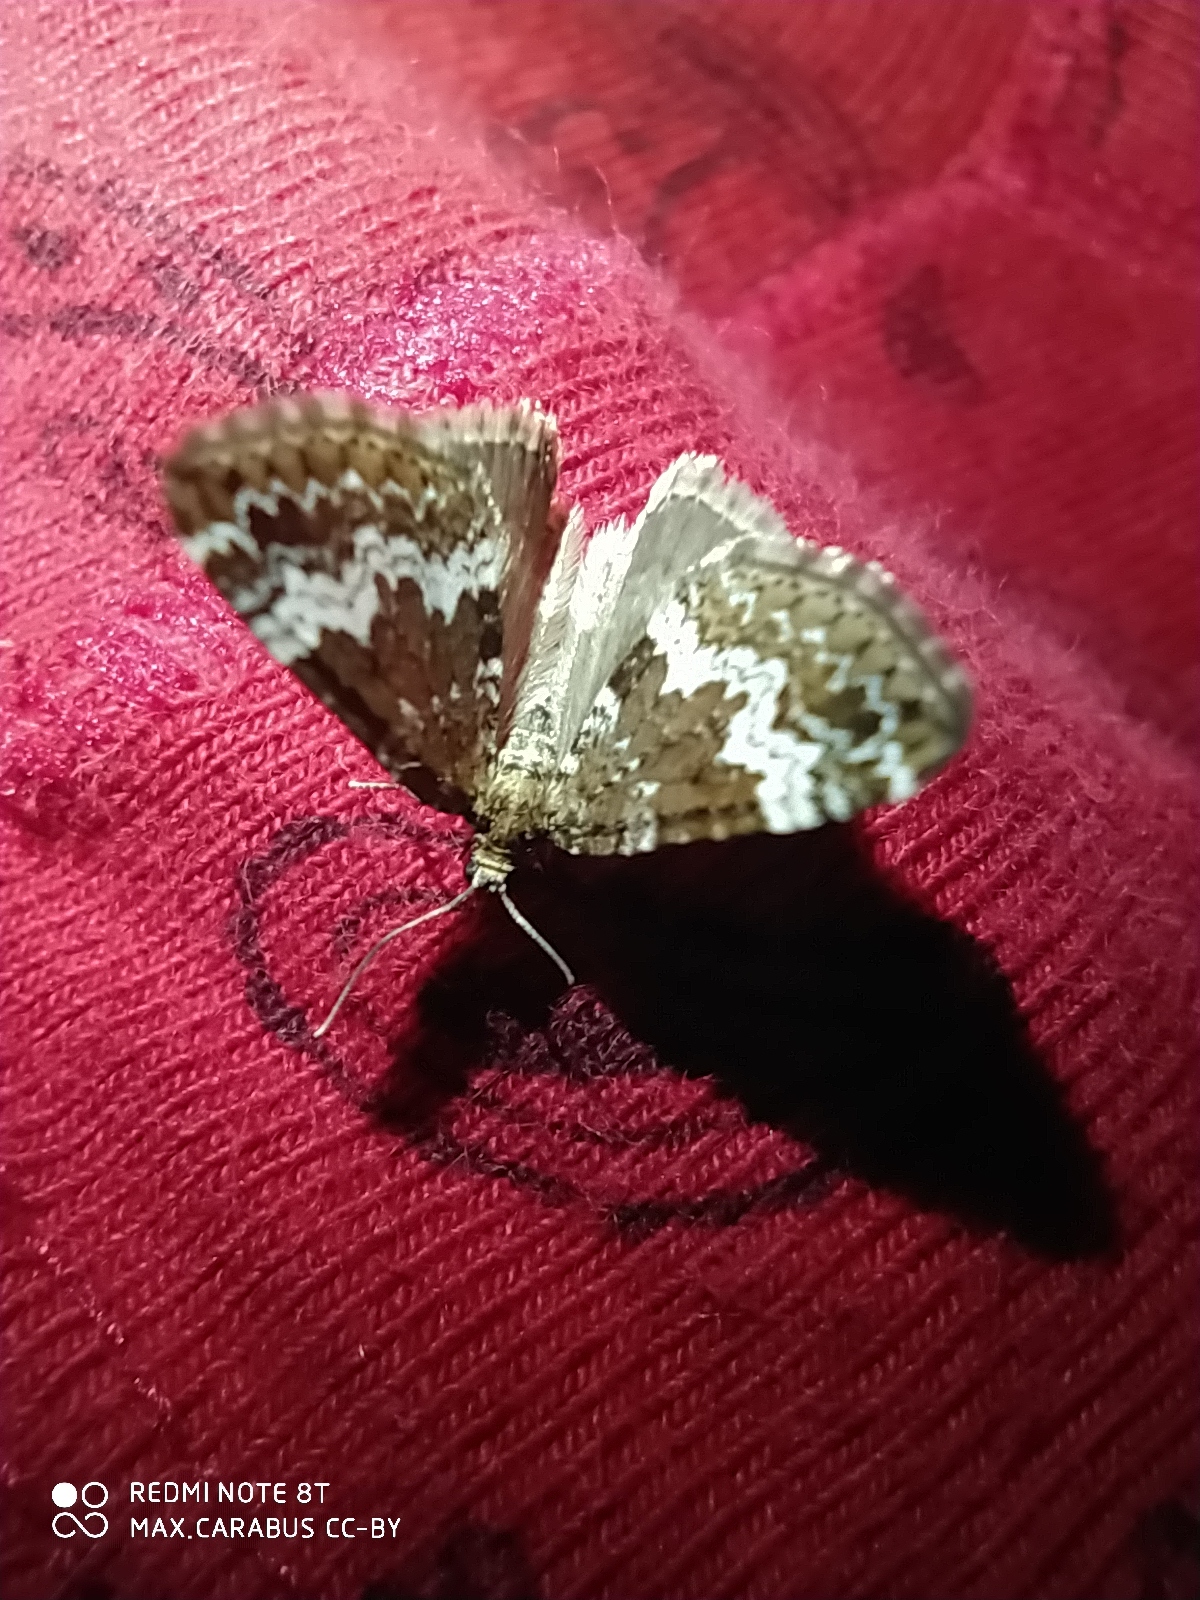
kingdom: Animalia
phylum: Arthropoda
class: Insecta
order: Lepidoptera
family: Geometridae
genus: Perizoma
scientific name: Perizoma alchemillata
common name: Small rivulet
